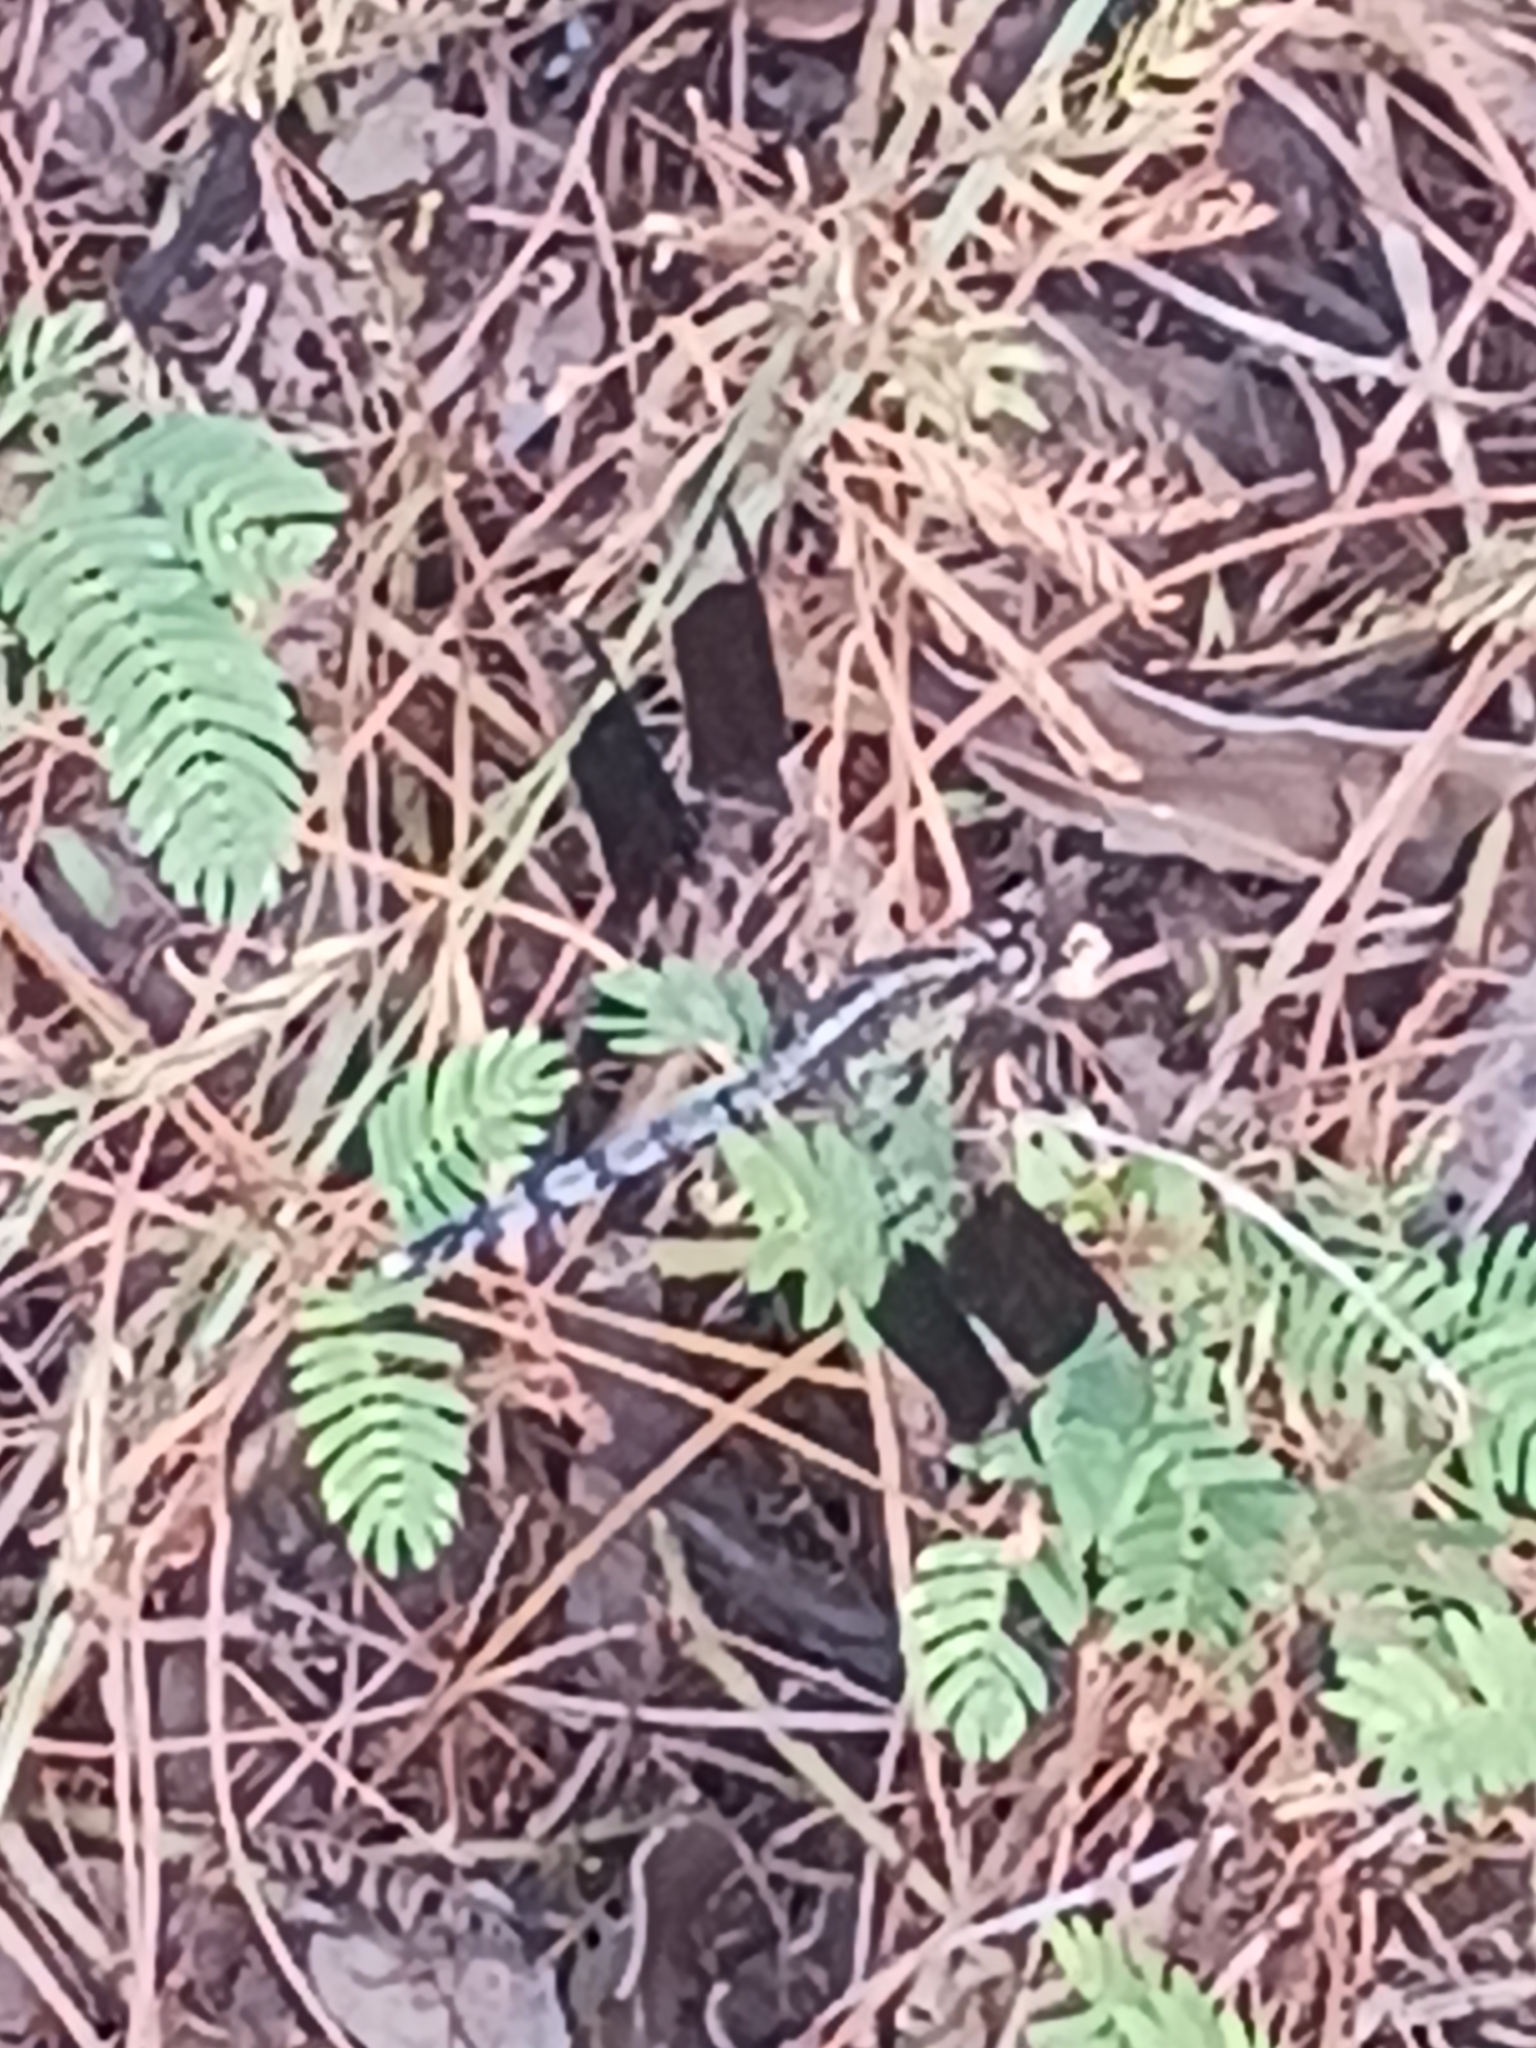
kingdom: Animalia
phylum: Arthropoda
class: Insecta
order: Odonata
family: Libellulidae
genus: Erythrodiplax
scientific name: Erythrodiplax umbrata
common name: Band-winged dragonlet
